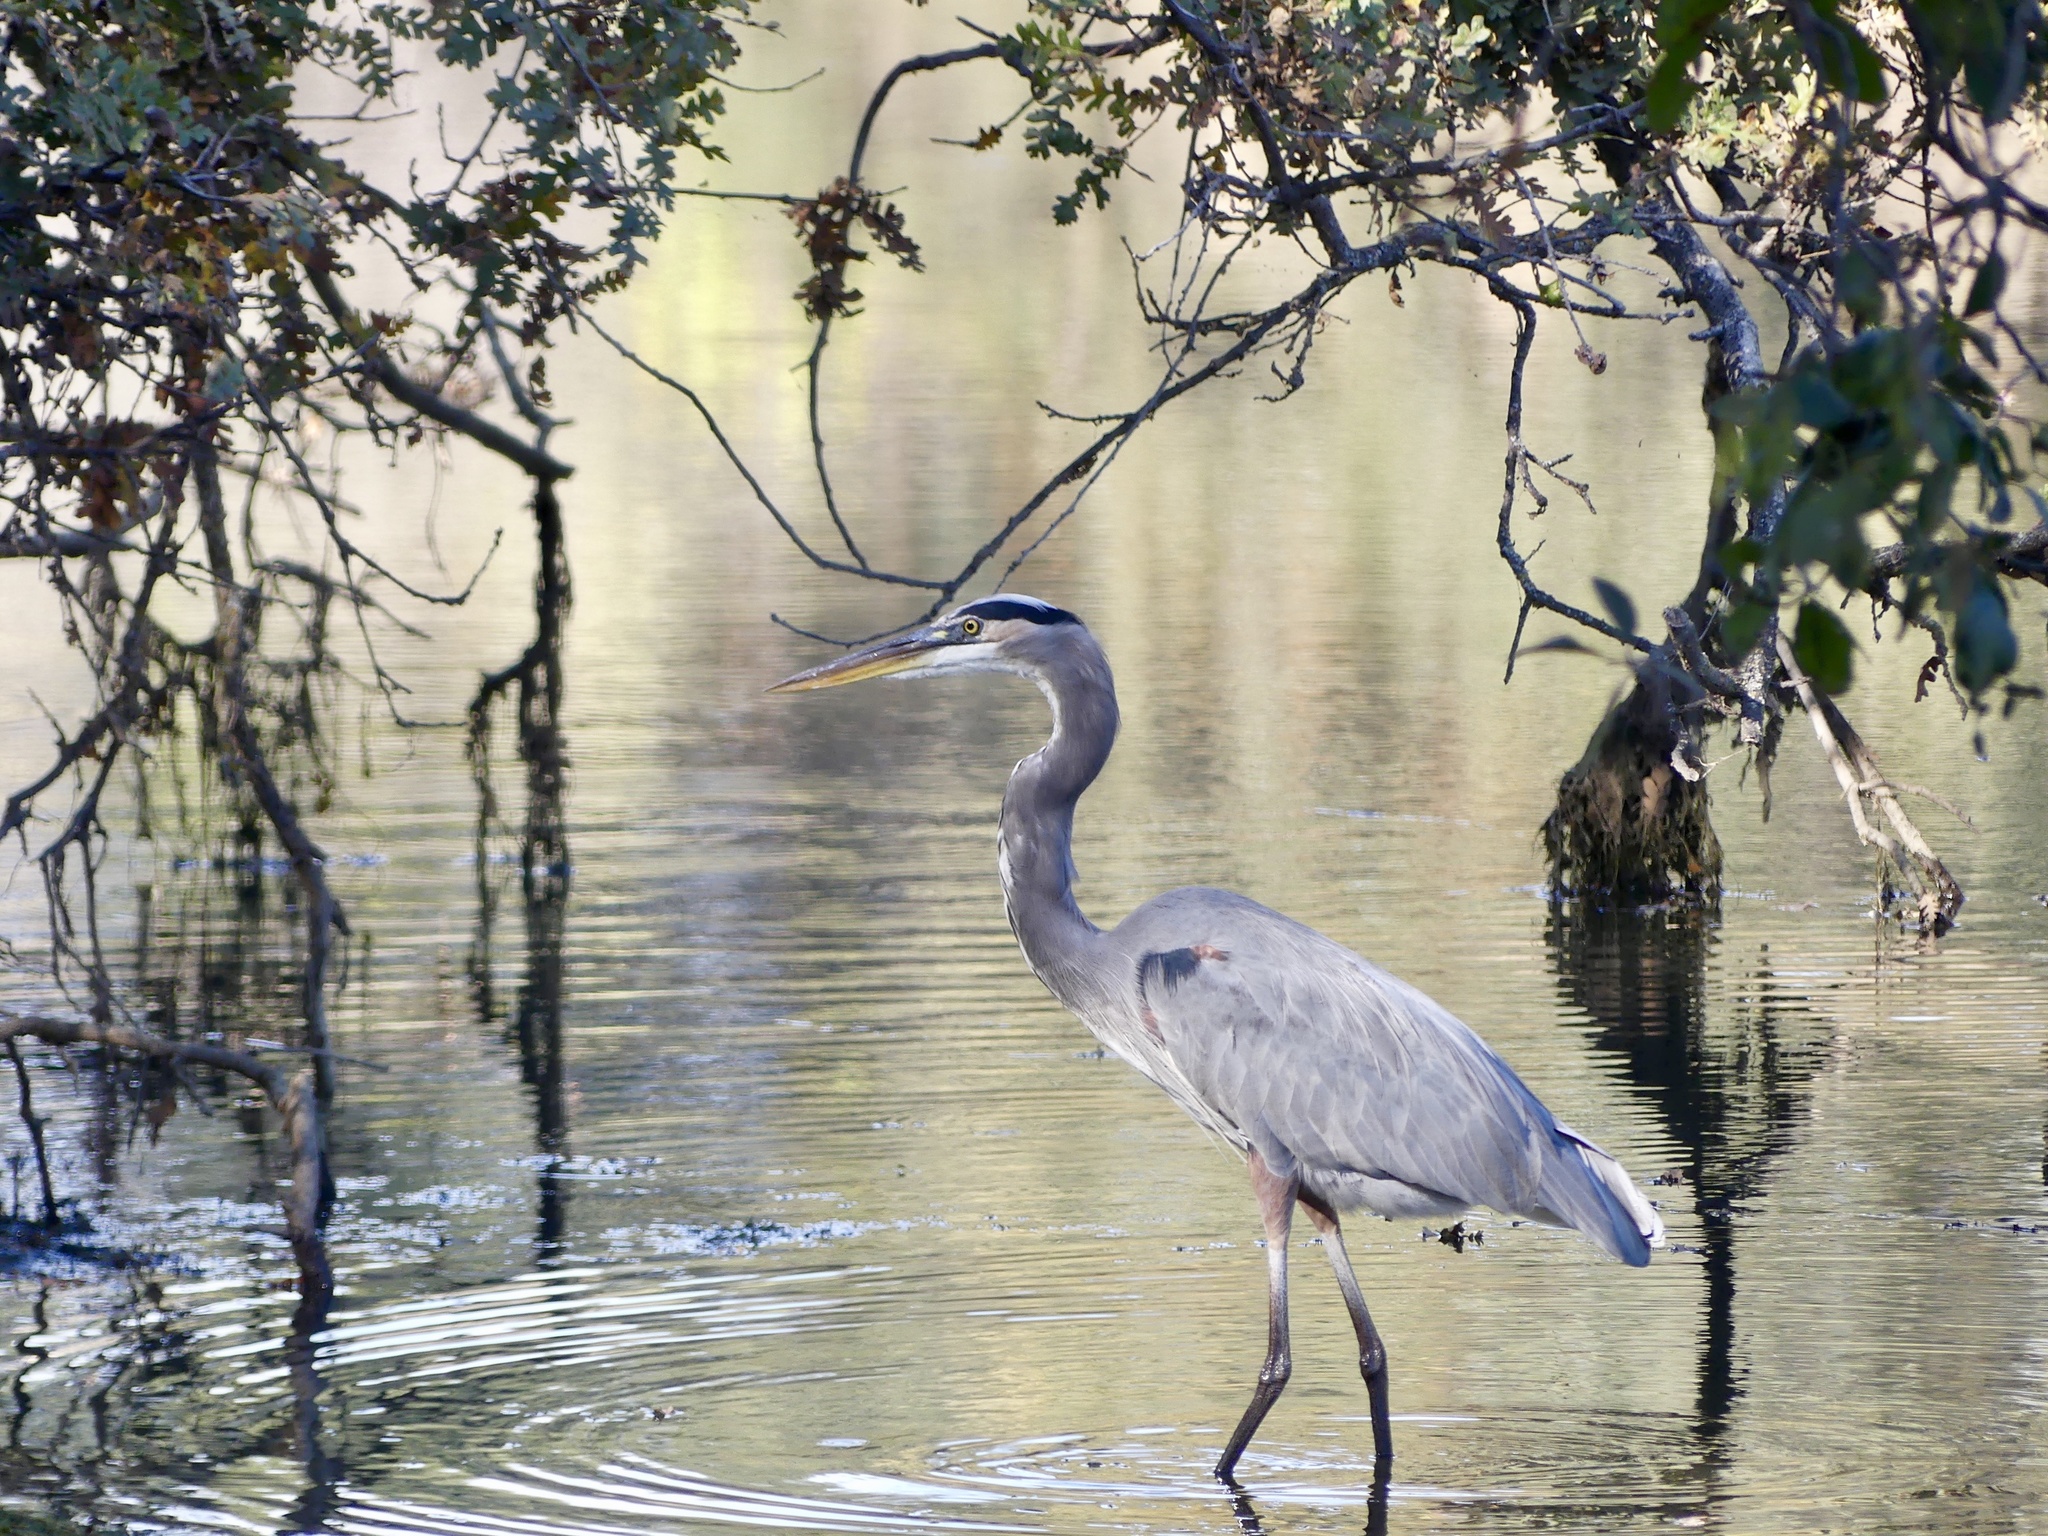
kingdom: Animalia
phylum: Chordata
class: Aves
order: Pelecaniformes
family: Ardeidae
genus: Ardea
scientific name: Ardea herodias
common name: Great blue heron
